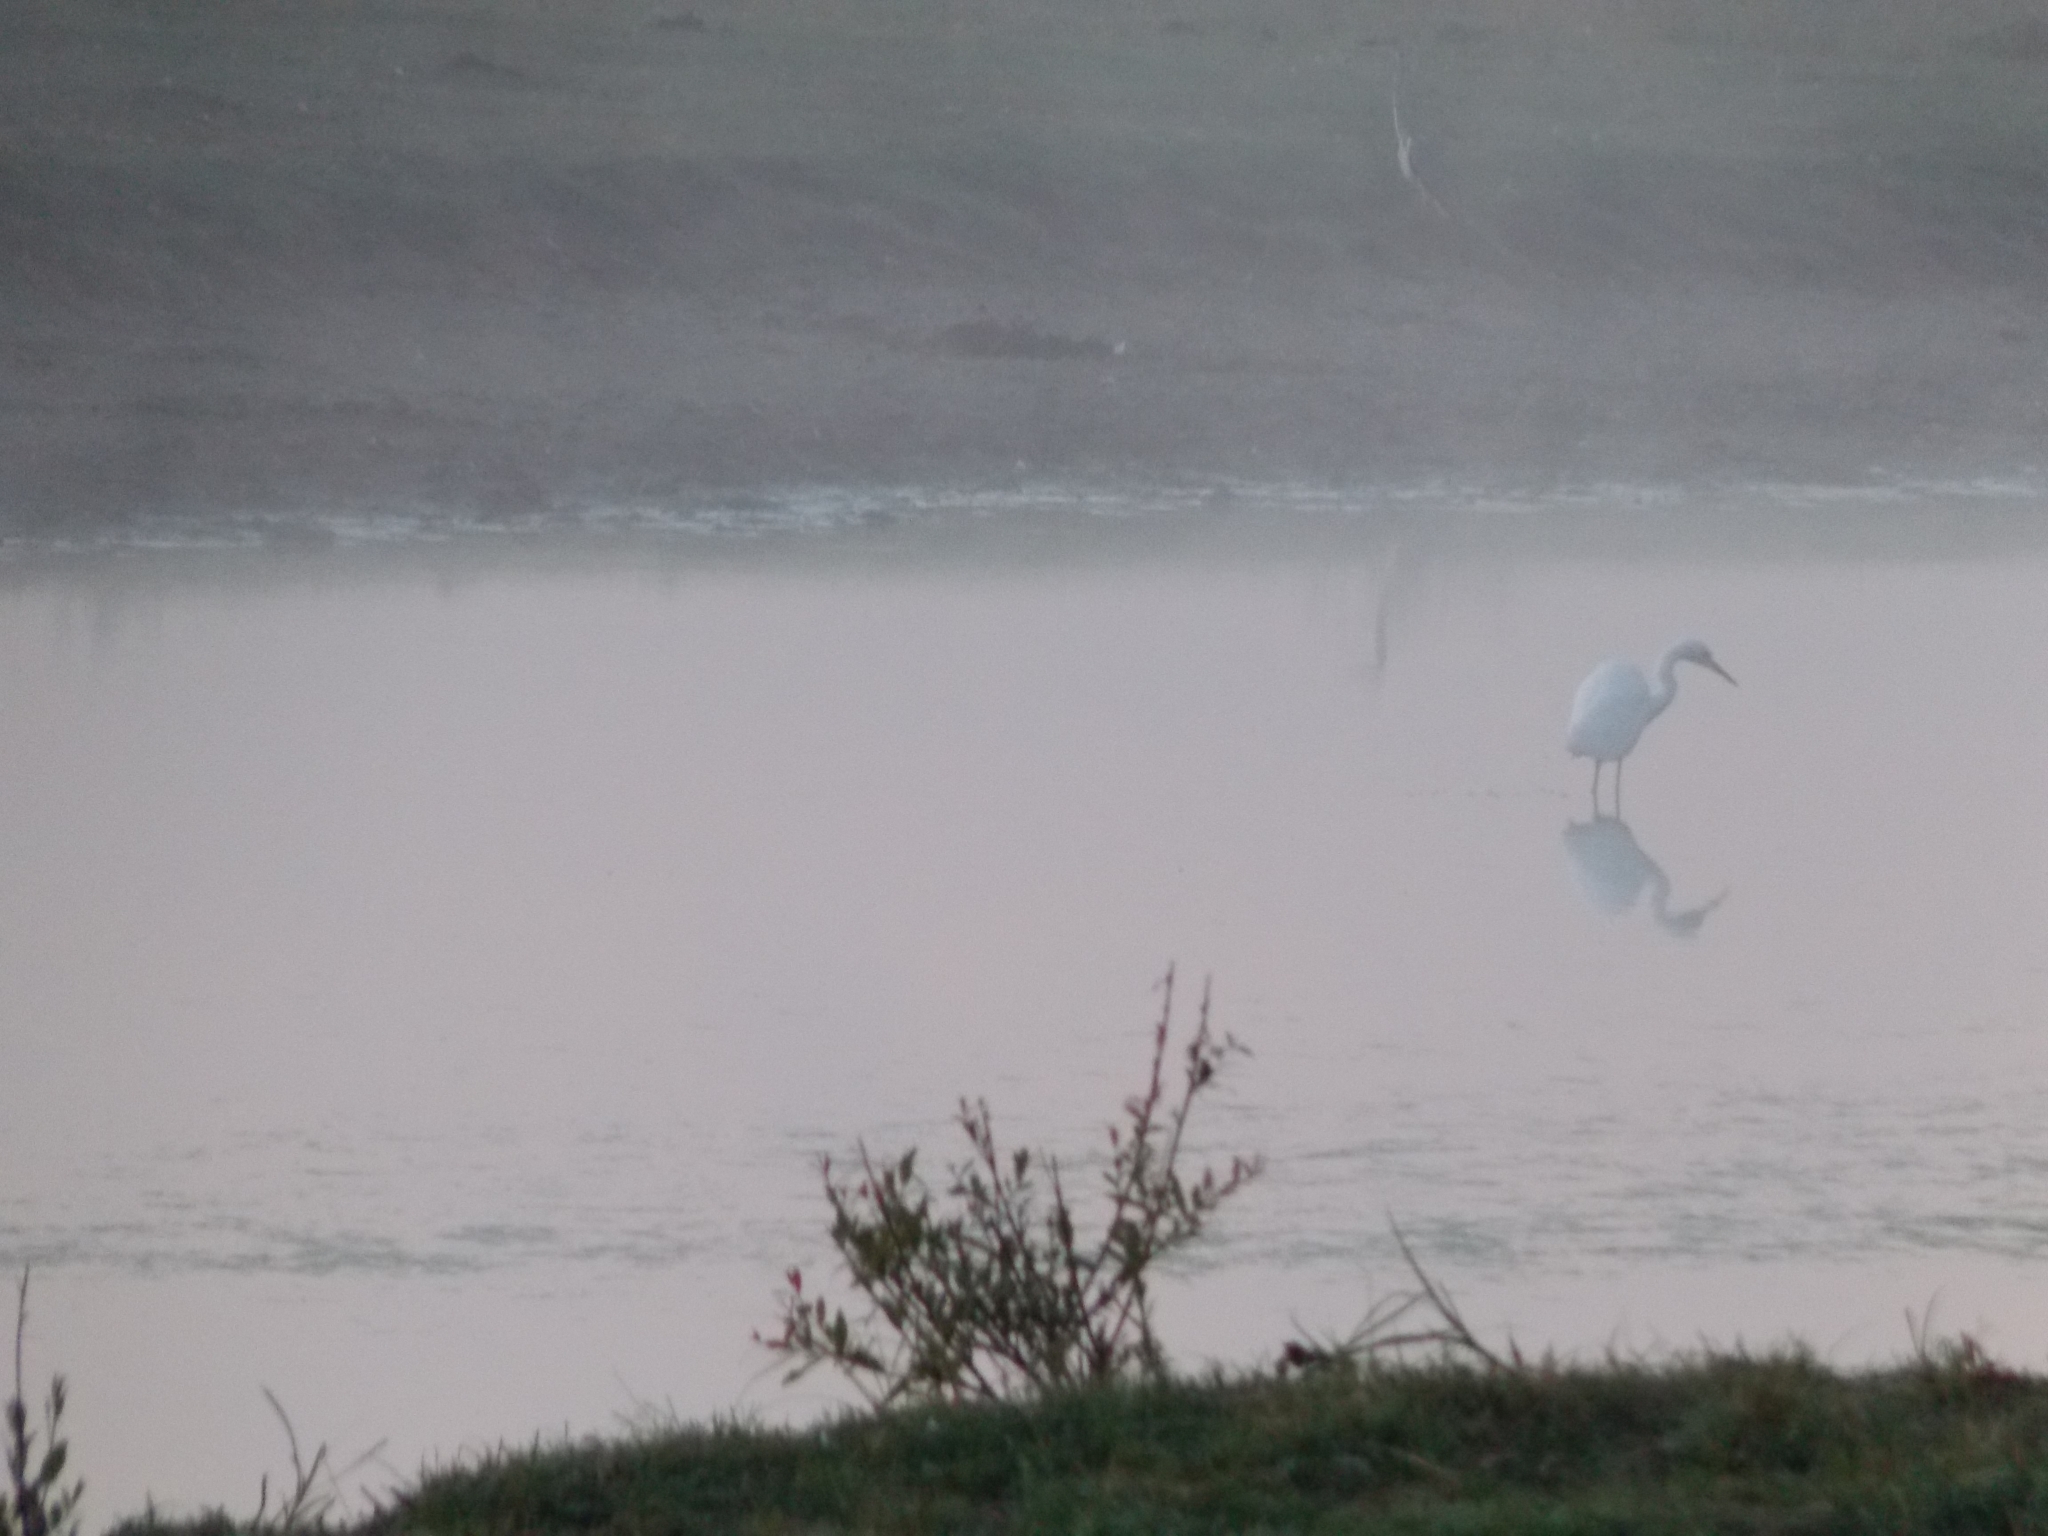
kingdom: Animalia
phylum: Chordata
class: Aves
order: Pelecaniformes
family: Ardeidae
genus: Ardea
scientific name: Ardea alba
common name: Great egret
